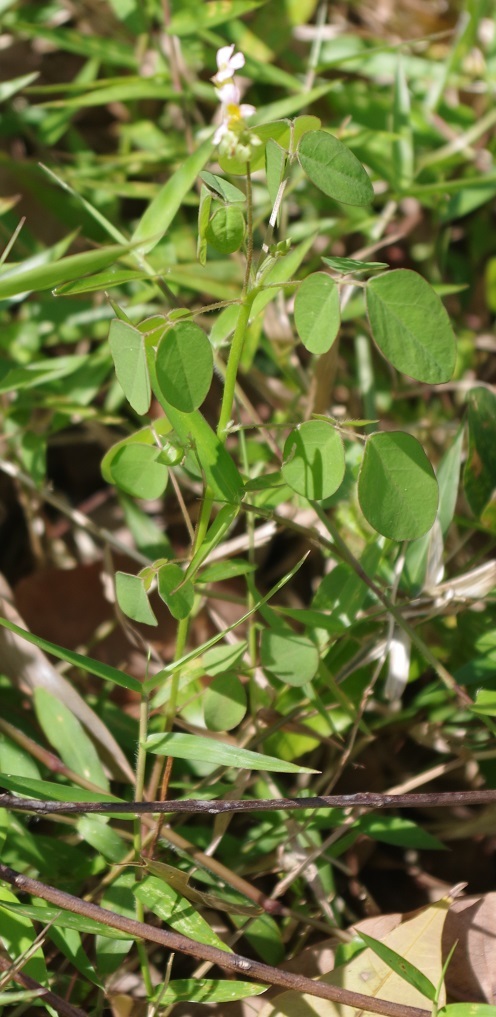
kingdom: Plantae
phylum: Tracheophyta
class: Magnoliopsida
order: Oxalidales
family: Oxalidaceae
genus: Oxalis
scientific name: Oxalis barrelieri
